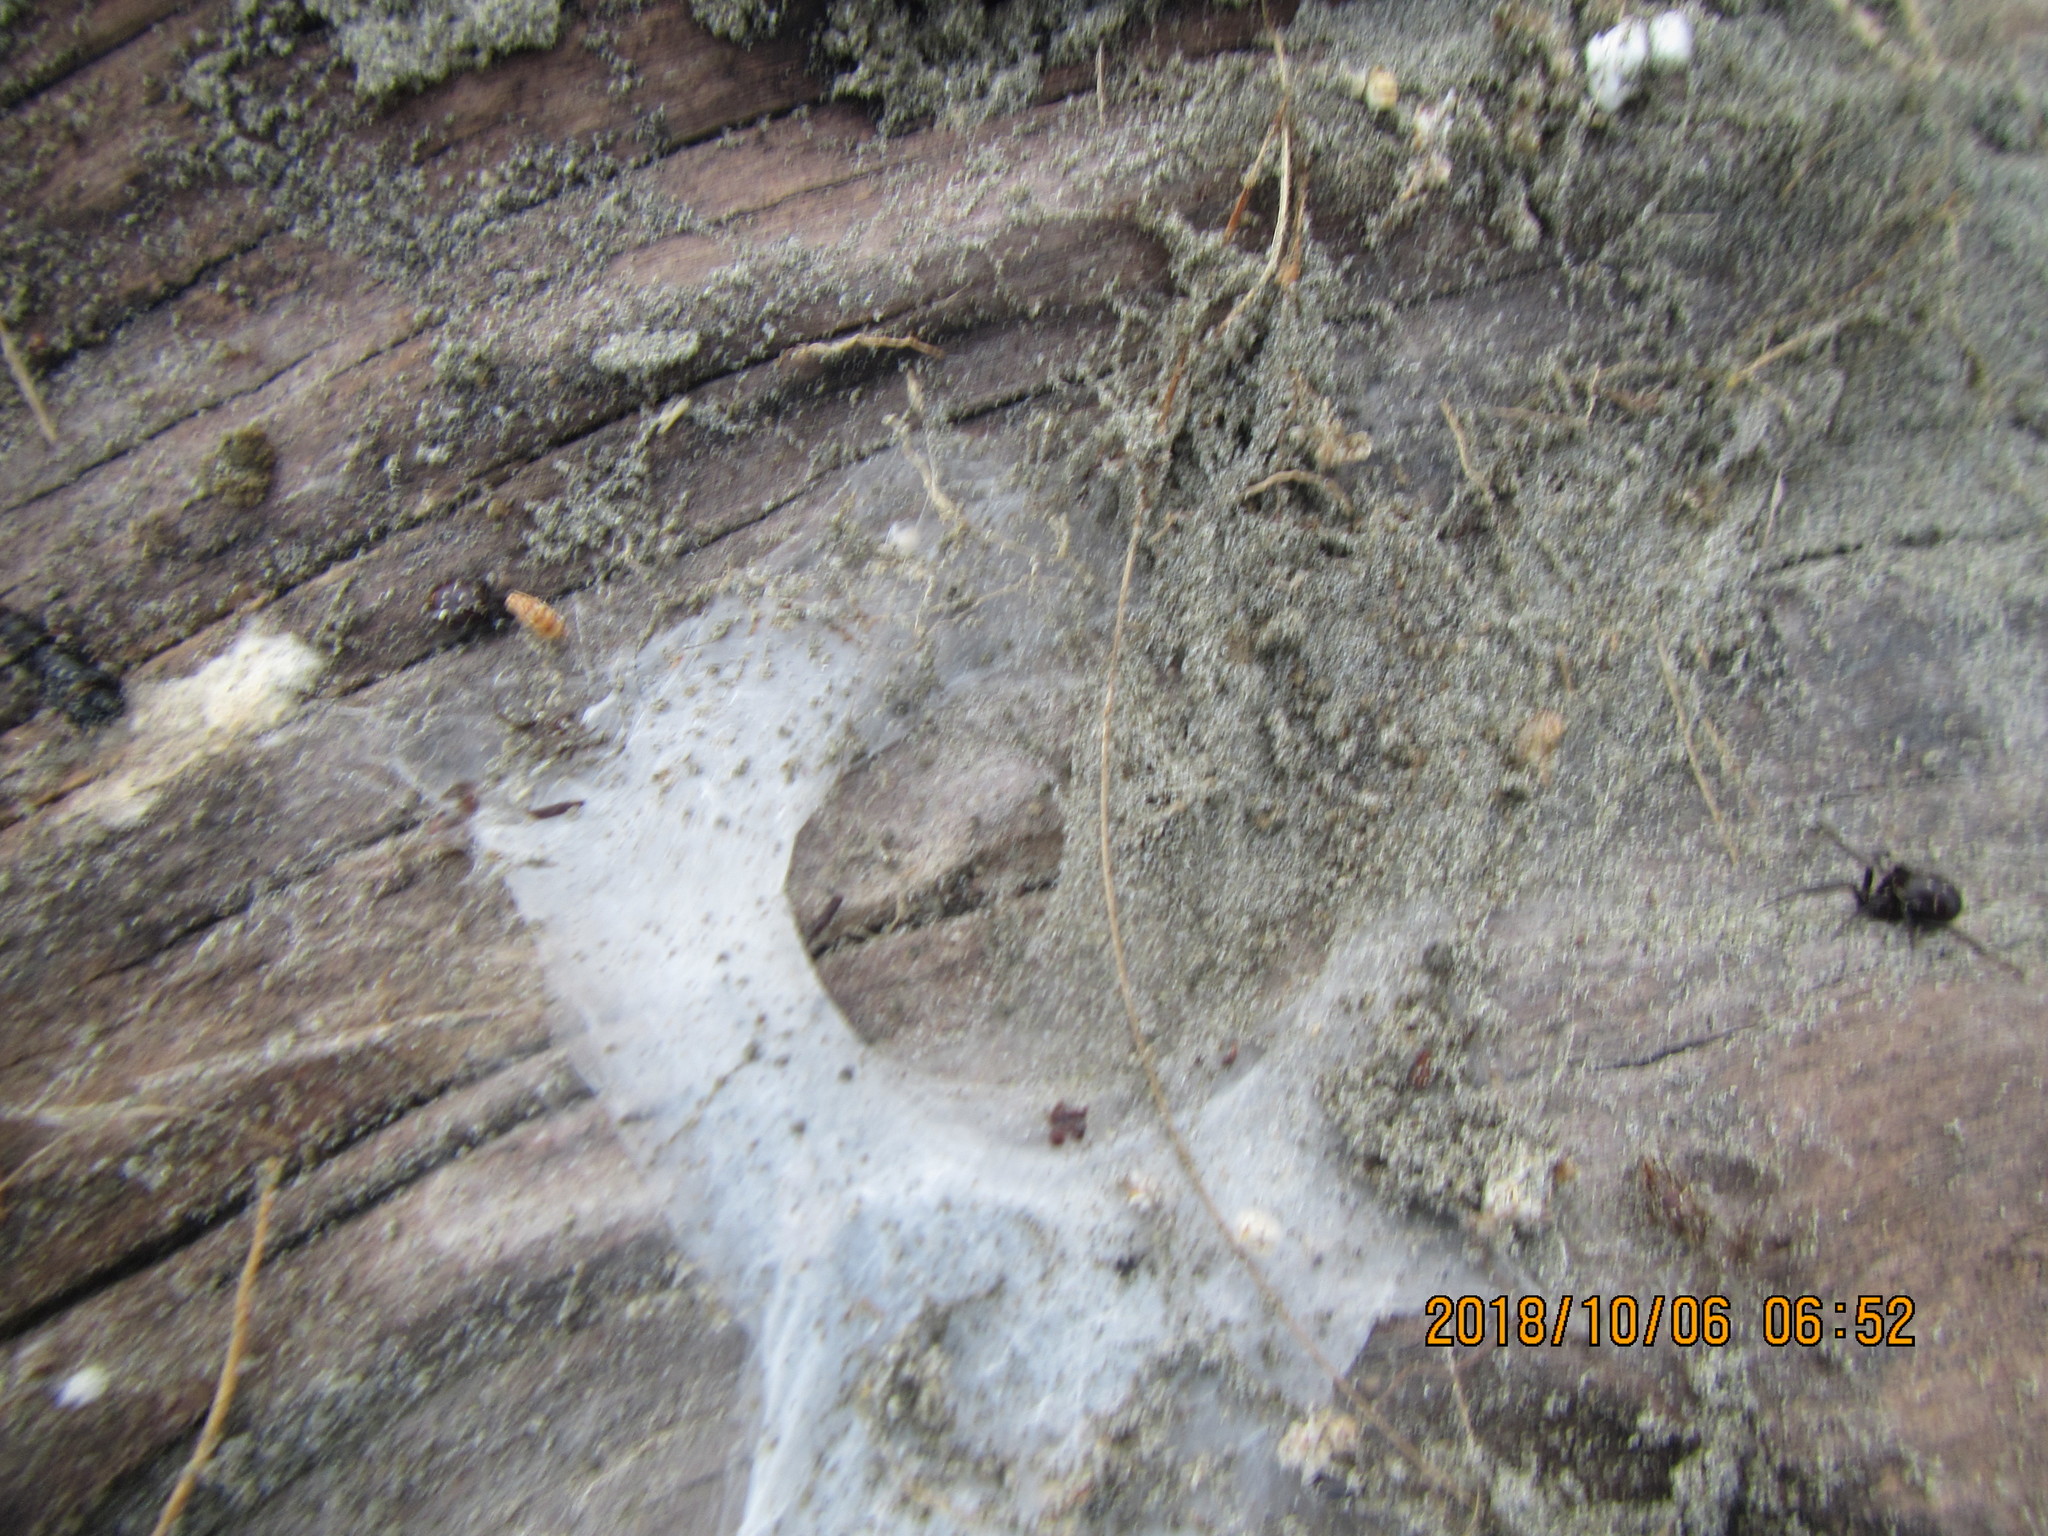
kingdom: Animalia
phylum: Arthropoda
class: Arachnida
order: Araneae
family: Porrhothelidae
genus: Porrhothele
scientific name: Porrhothele antipodiana
